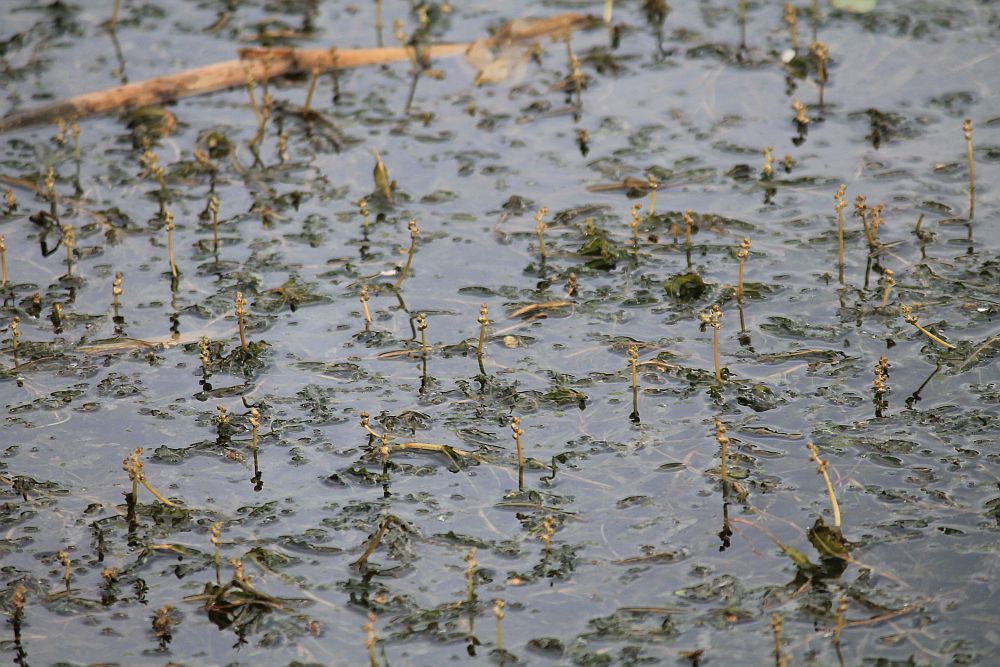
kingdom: Plantae
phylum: Tracheophyta
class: Liliopsida
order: Alismatales
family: Potamogetonaceae
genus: Potamogeton
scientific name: Potamogeton crispus
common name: Curled pondweed
